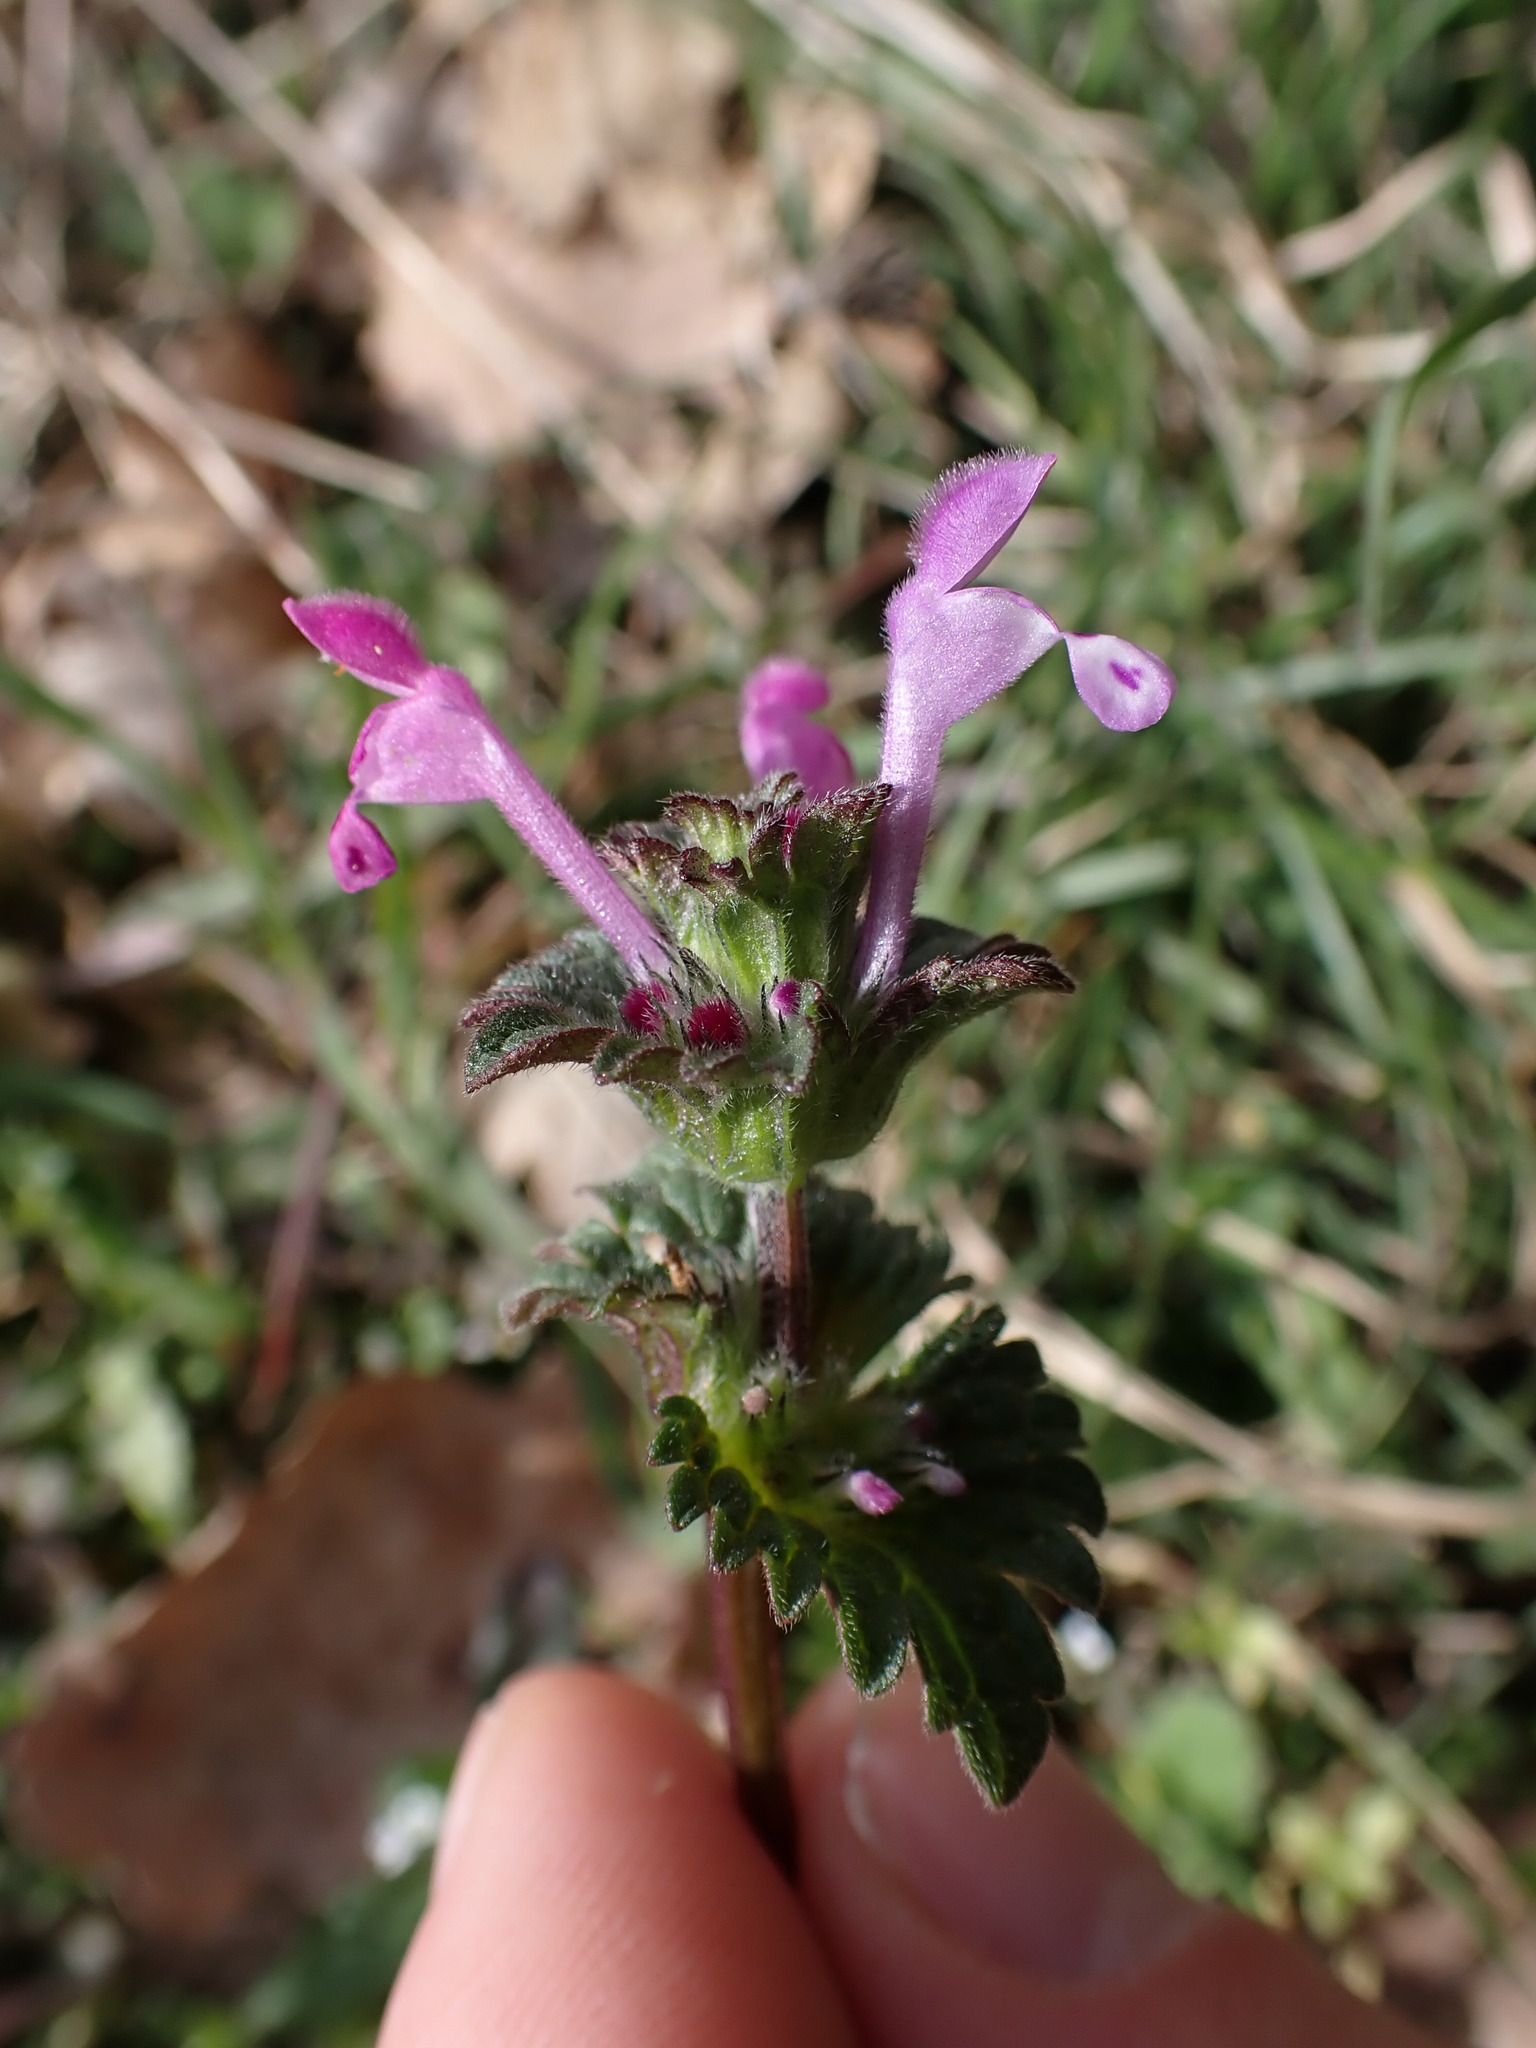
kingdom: Plantae
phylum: Tracheophyta
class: Magnoliopsida
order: Lamiales
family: Lamiaceae
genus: Lamium
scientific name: Lamium amplexicaule
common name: Henbit dead-nettle
